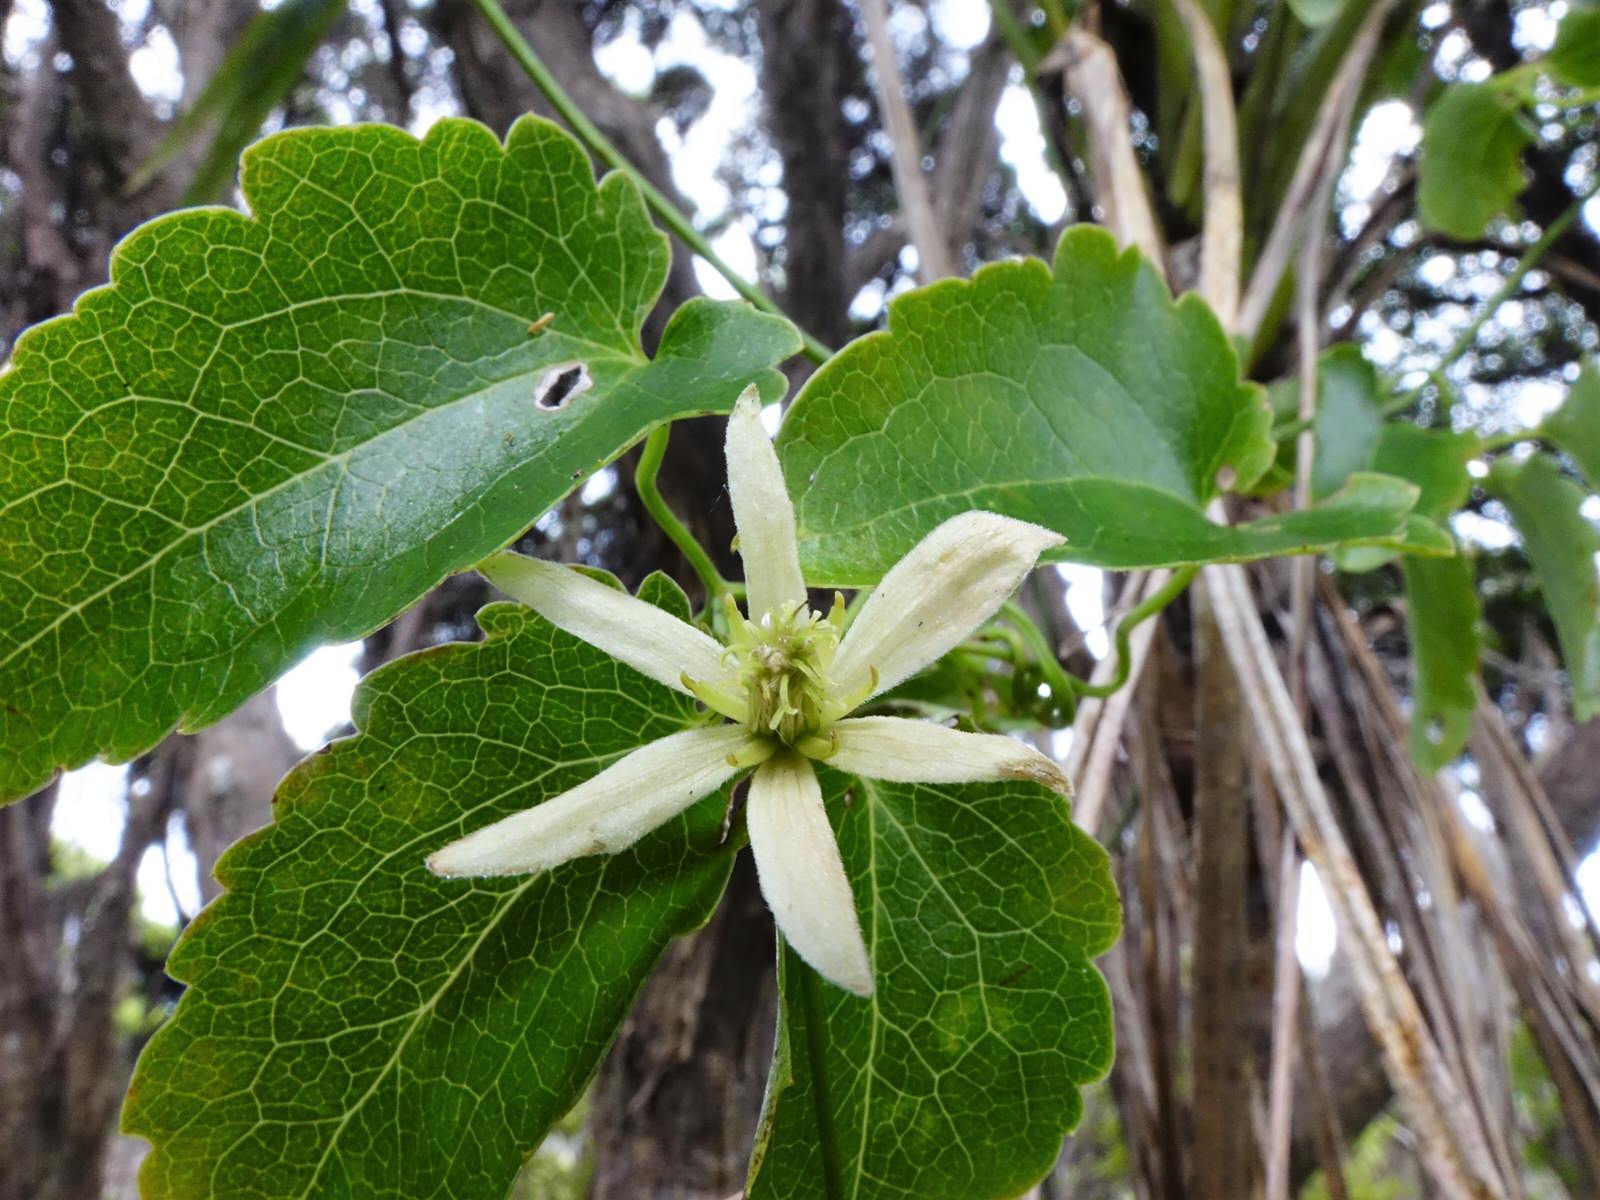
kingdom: Plantae
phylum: Tracheophyta
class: Magnoliopsida
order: Ranunculales
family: Ranunculaceae
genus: Clematis
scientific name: Clematis forsteri
